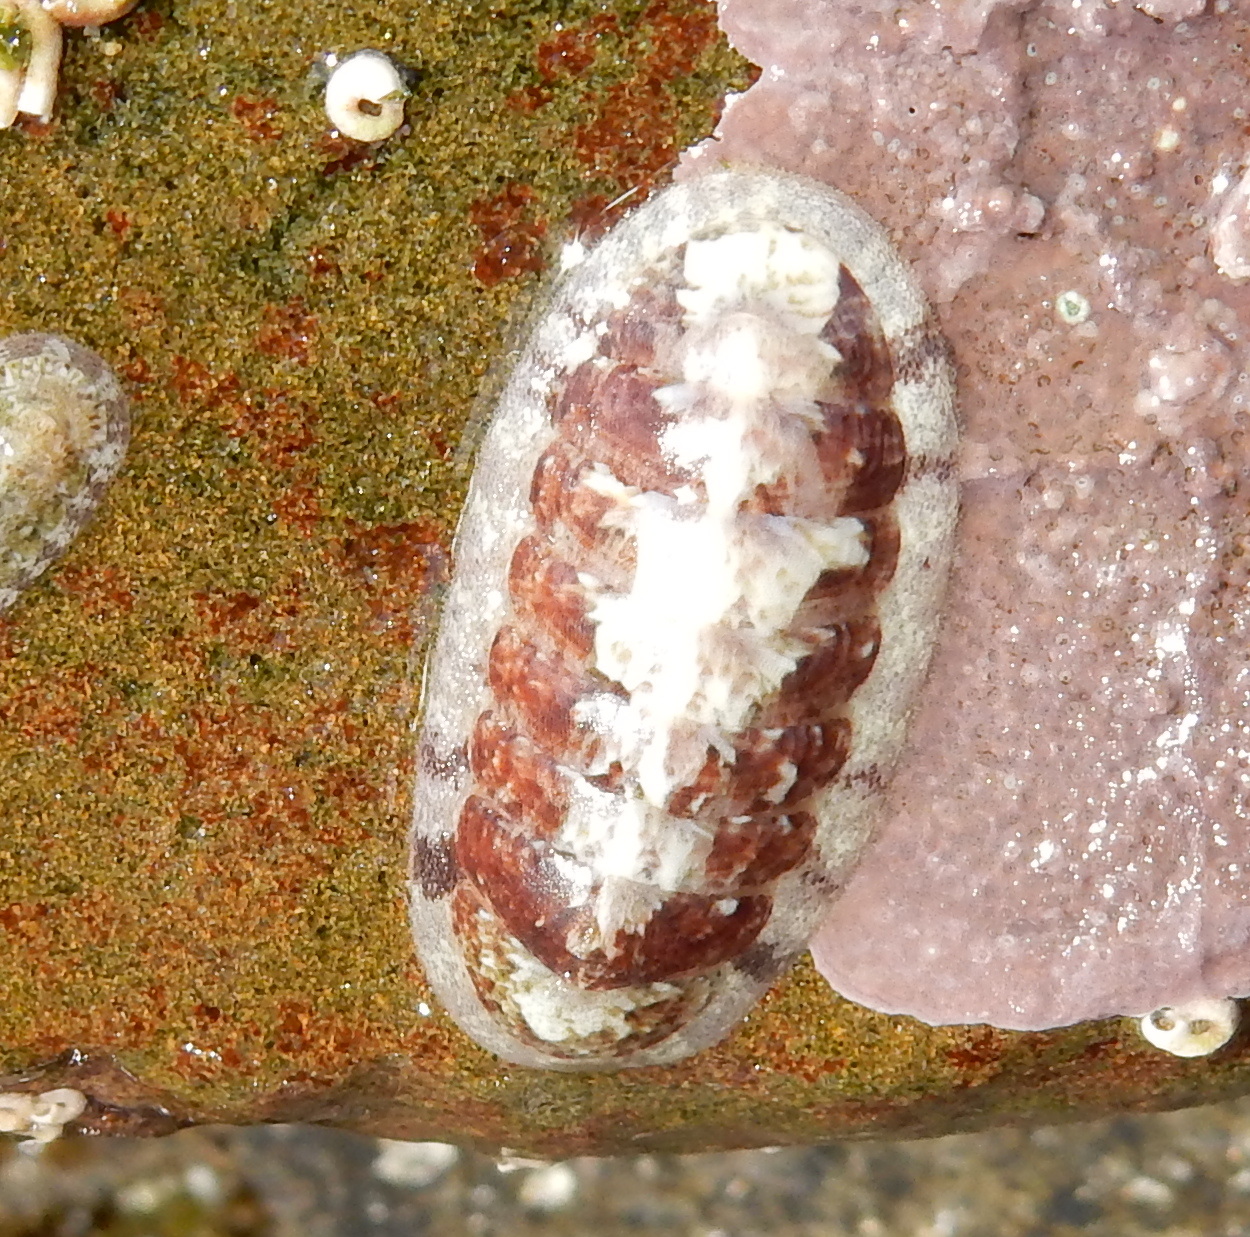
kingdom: Animalia
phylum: Mollusca
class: Polyplacophora
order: Chitonida
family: Ischnochitonidae
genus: Ischnochiton
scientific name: Ischnochiton oniscus
